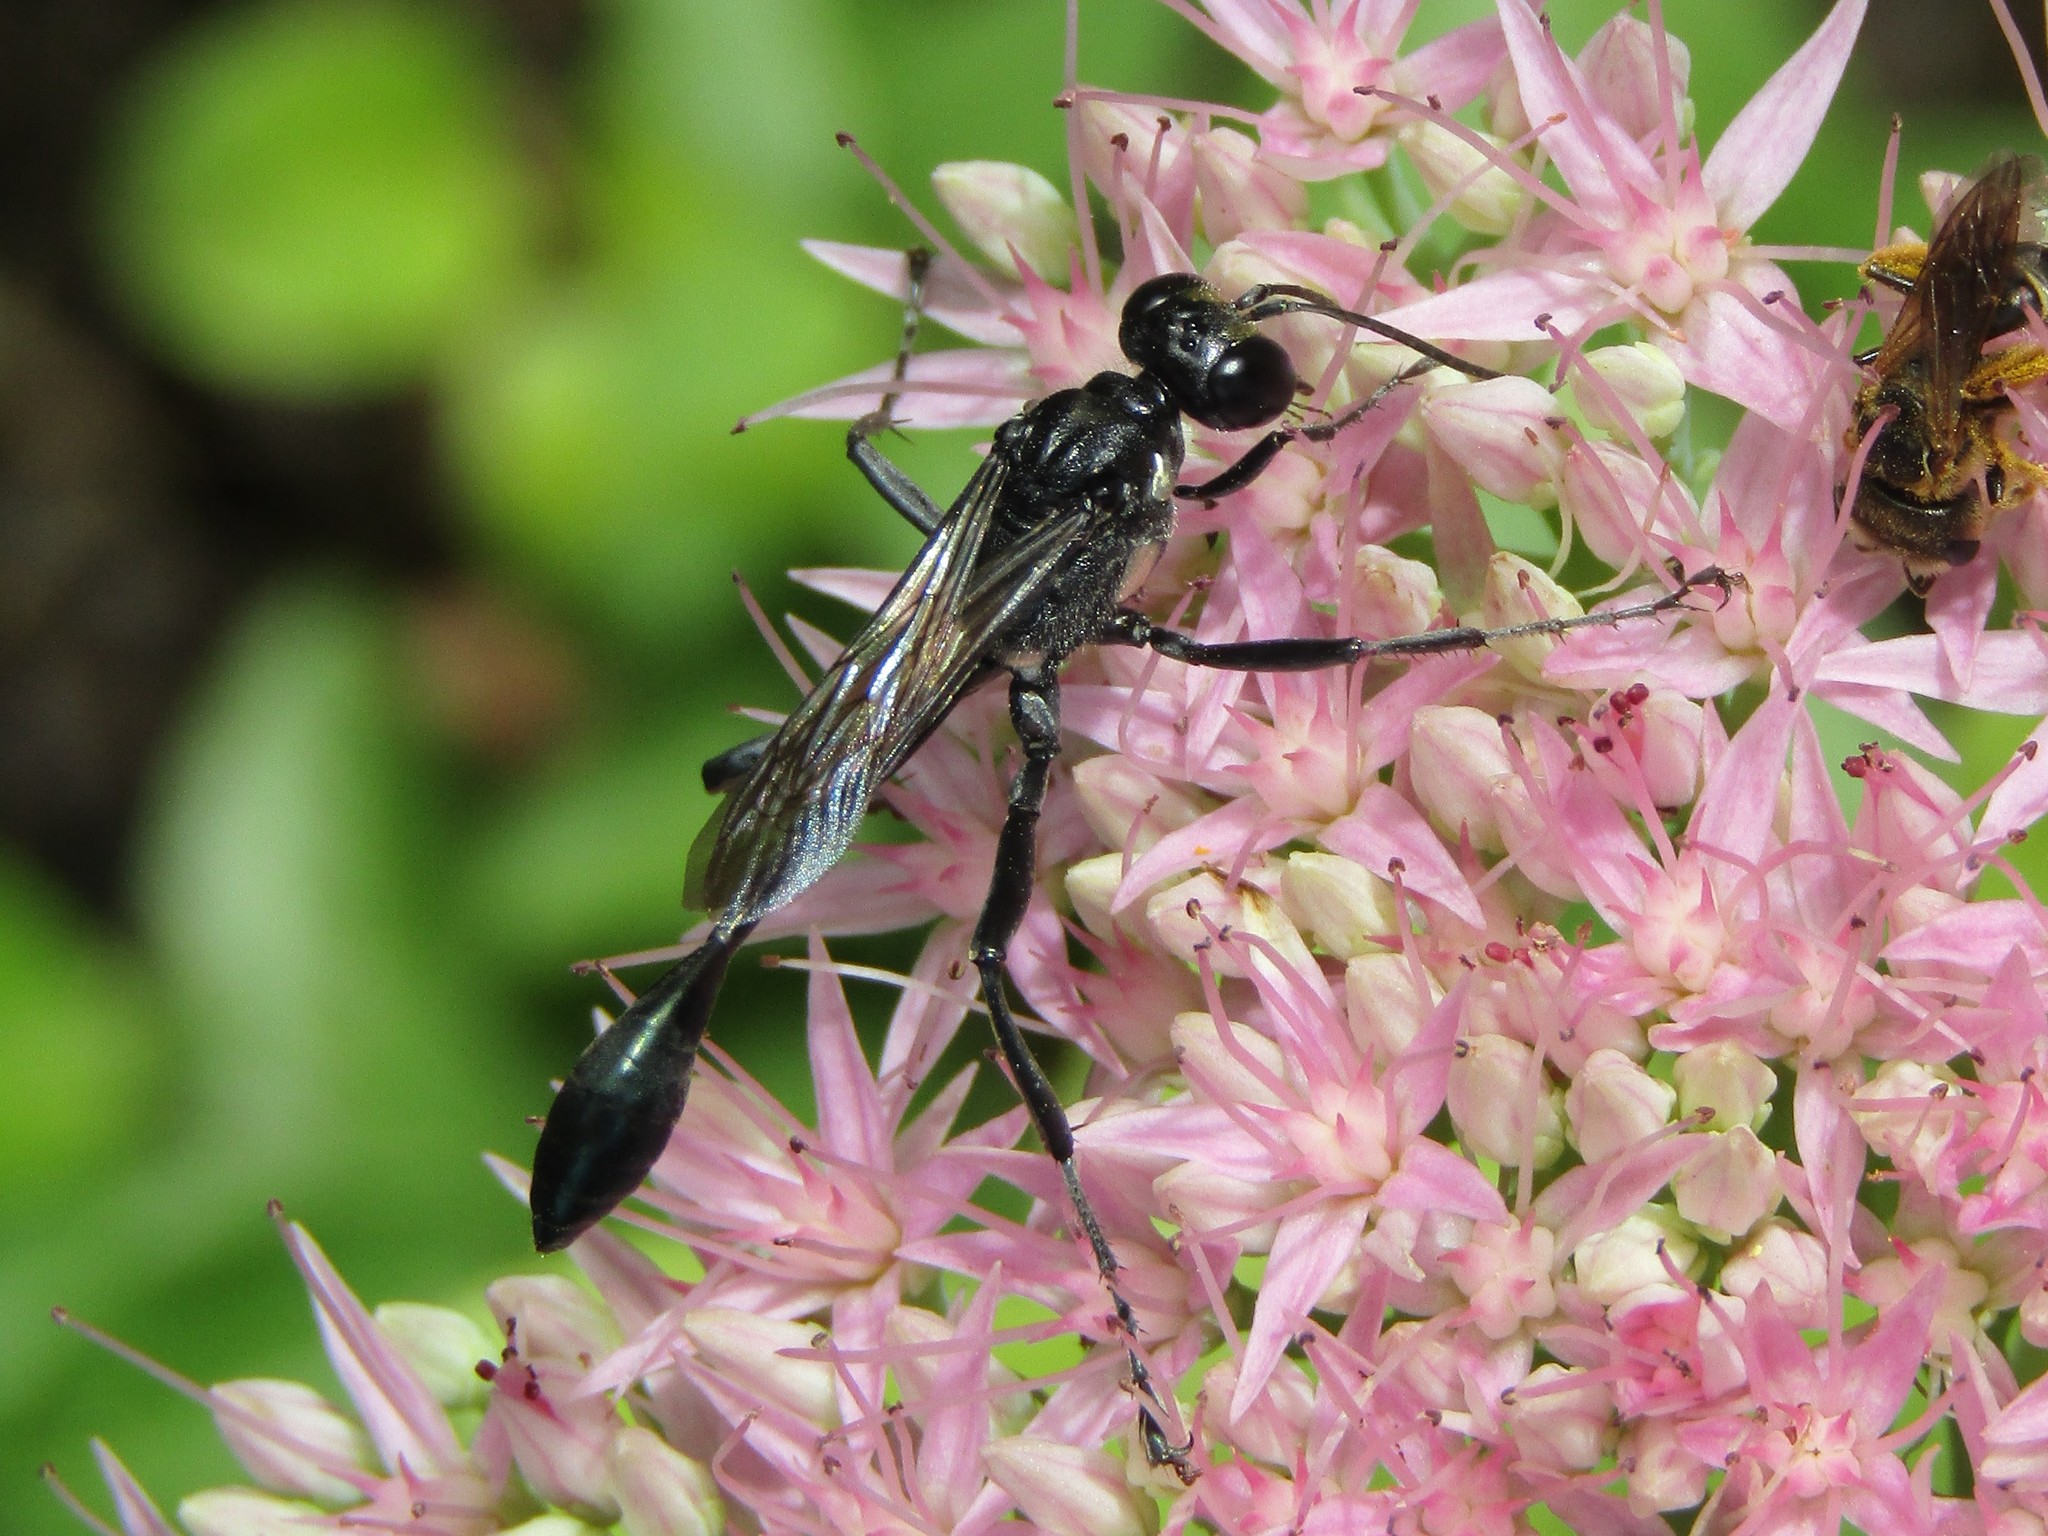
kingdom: Animalia
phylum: Arthropoda
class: Insecta
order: Hymenoptera
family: Sphecidae
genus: Eremnophila
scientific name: Eremnophila aureonotata
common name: Gold-marked thread-waisted wasp
